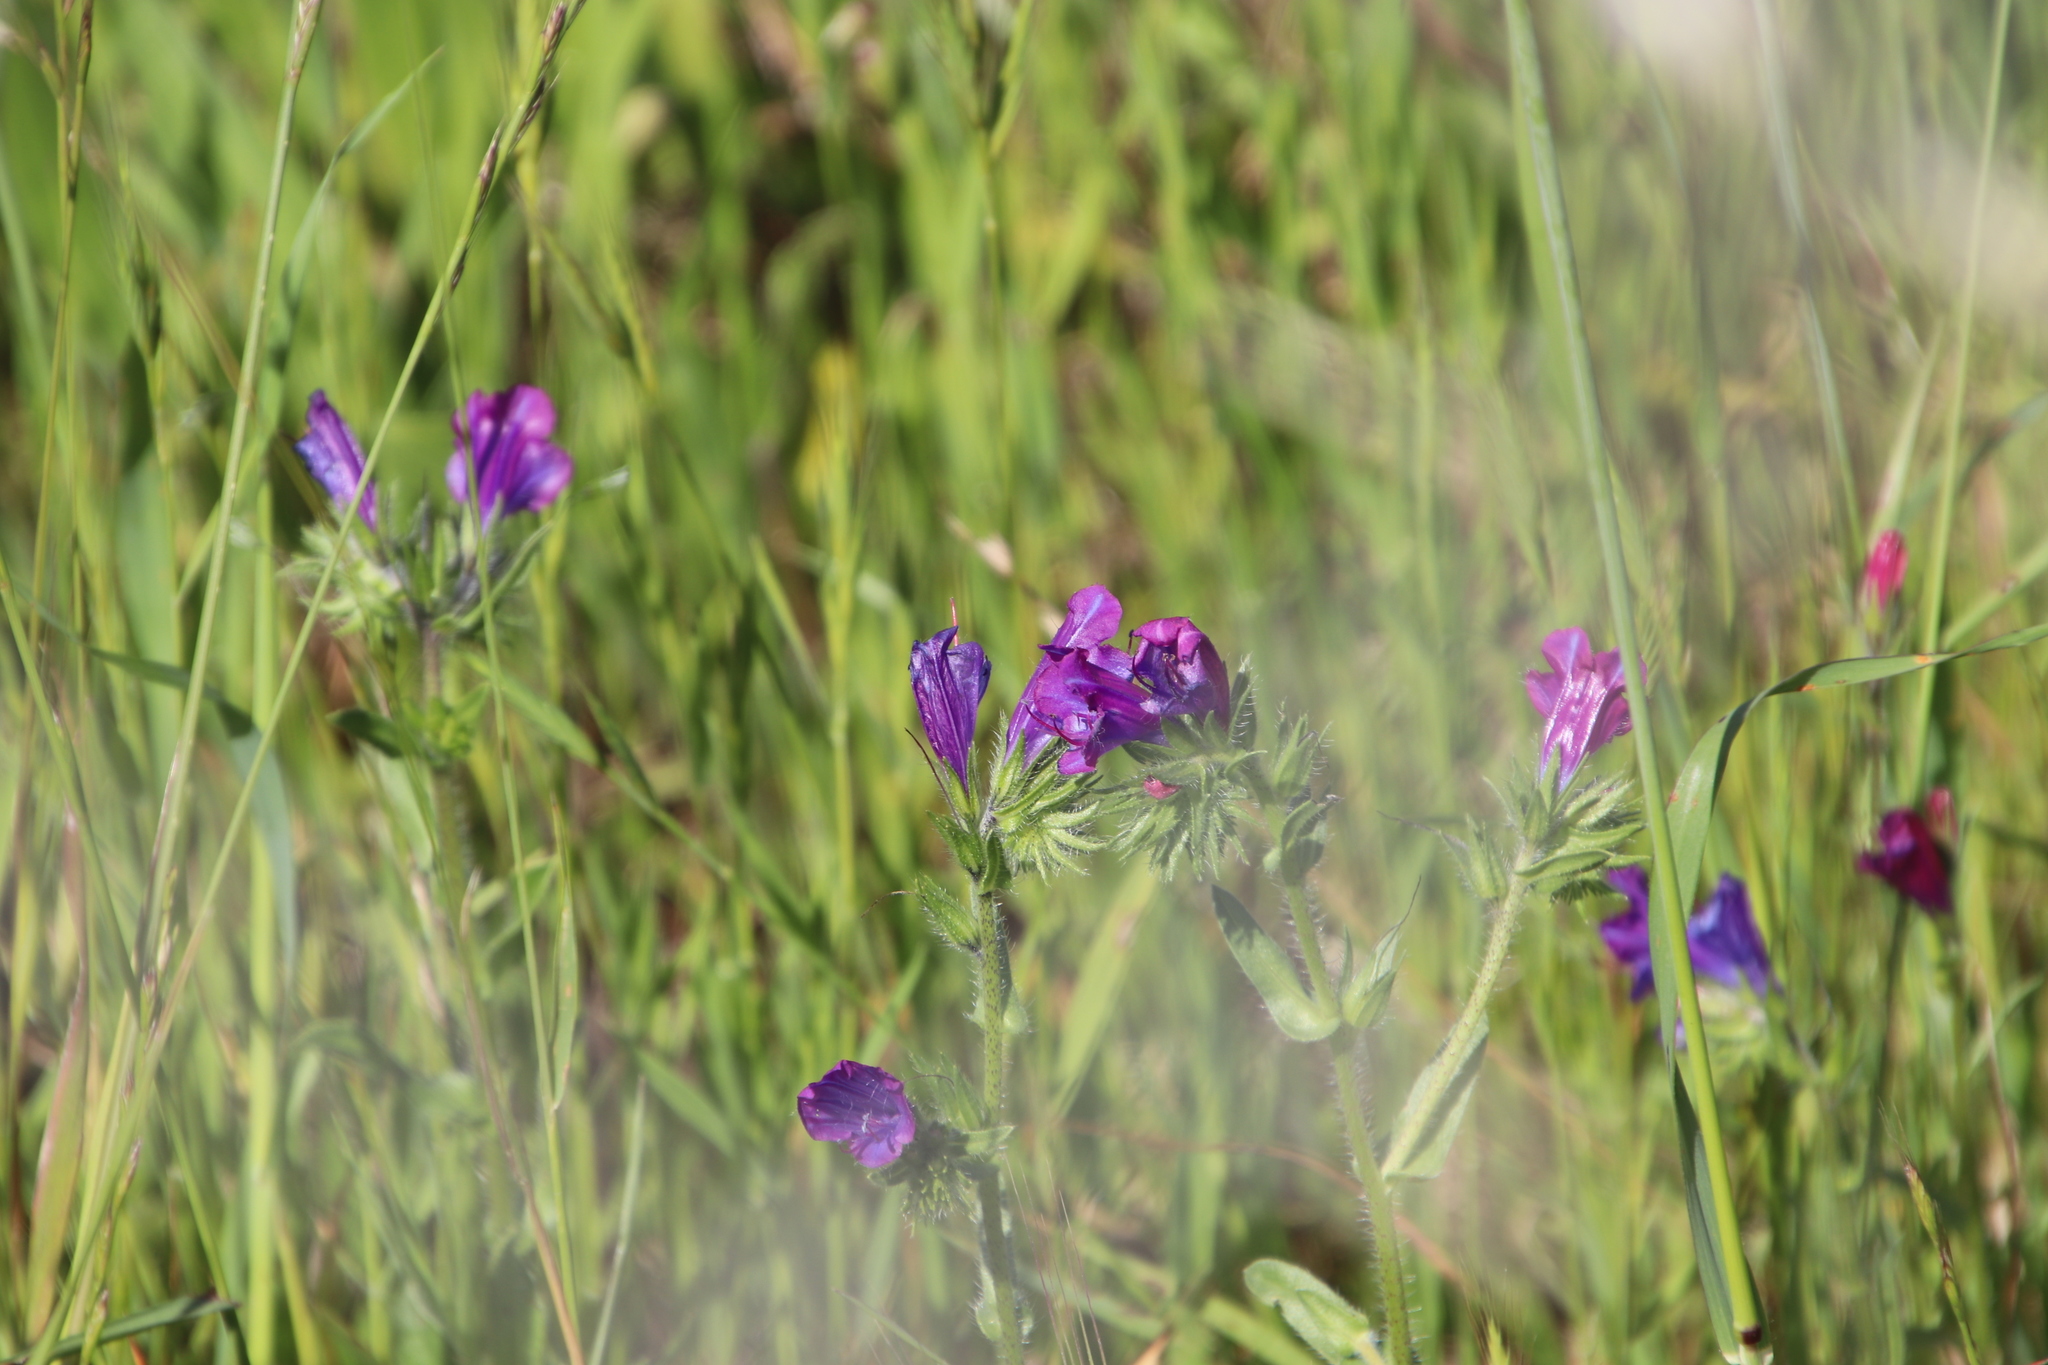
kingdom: Plantae
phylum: Tracheophyta
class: Magnoliopsida
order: Boraginales
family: Boraginaceae
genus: Echium
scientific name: Echium plantagineum
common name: Purple viper's-bugloss
